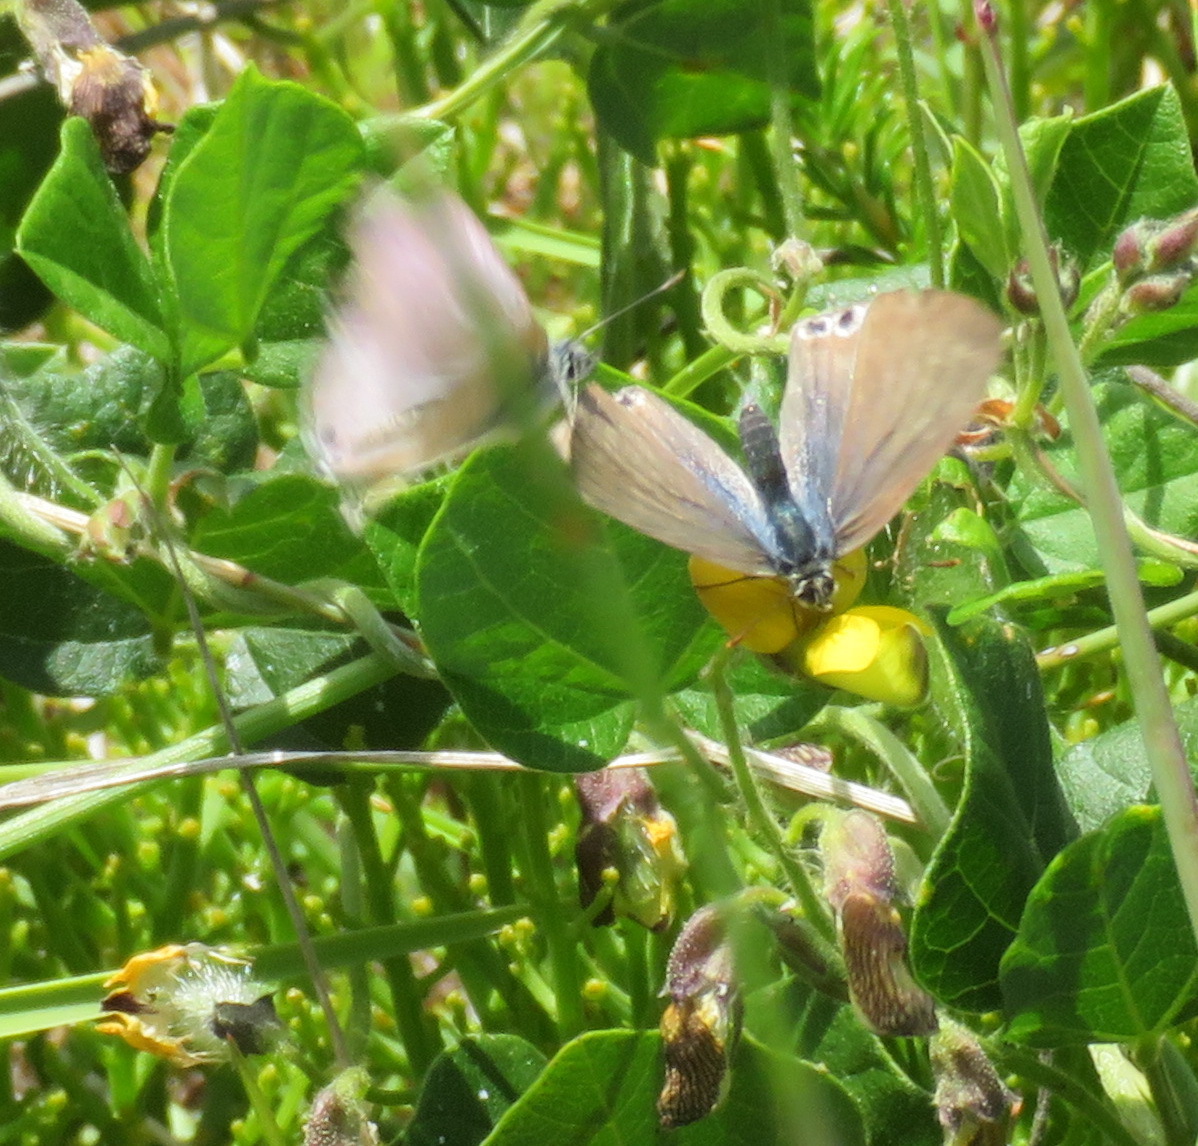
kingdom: Animalia
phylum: Arthropoda
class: Insecta
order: Lepidoptera
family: Lycaenidae
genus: Lampides
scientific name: Lampides boeticus
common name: Long-tailed blue
